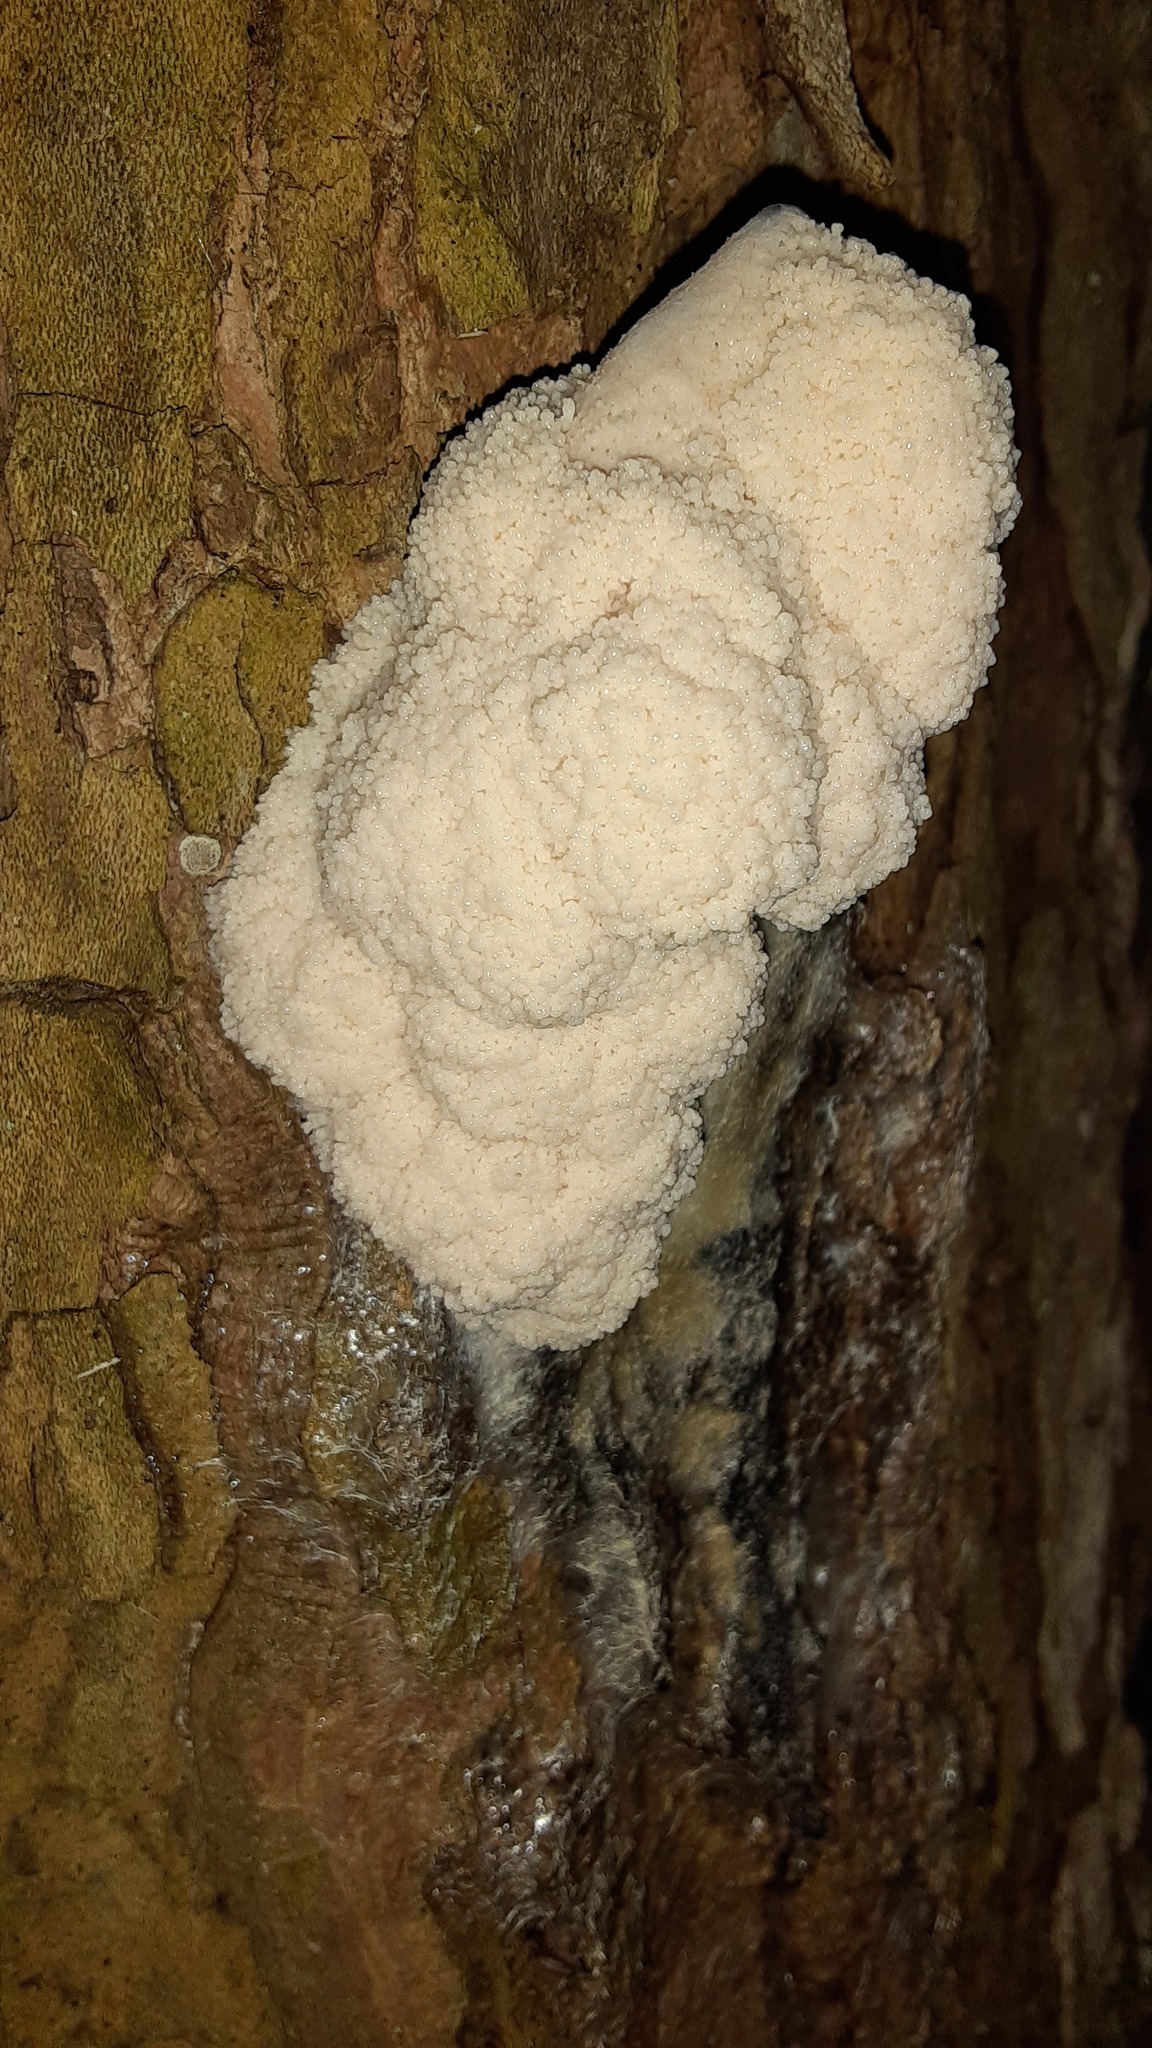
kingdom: Protozoa
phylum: Mycetozoa
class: Myxomycetes
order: Stemonitidales
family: Stemonitidaceae
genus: Brefeldia
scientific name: Brefeldia maxima
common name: Tapioca slime mold
